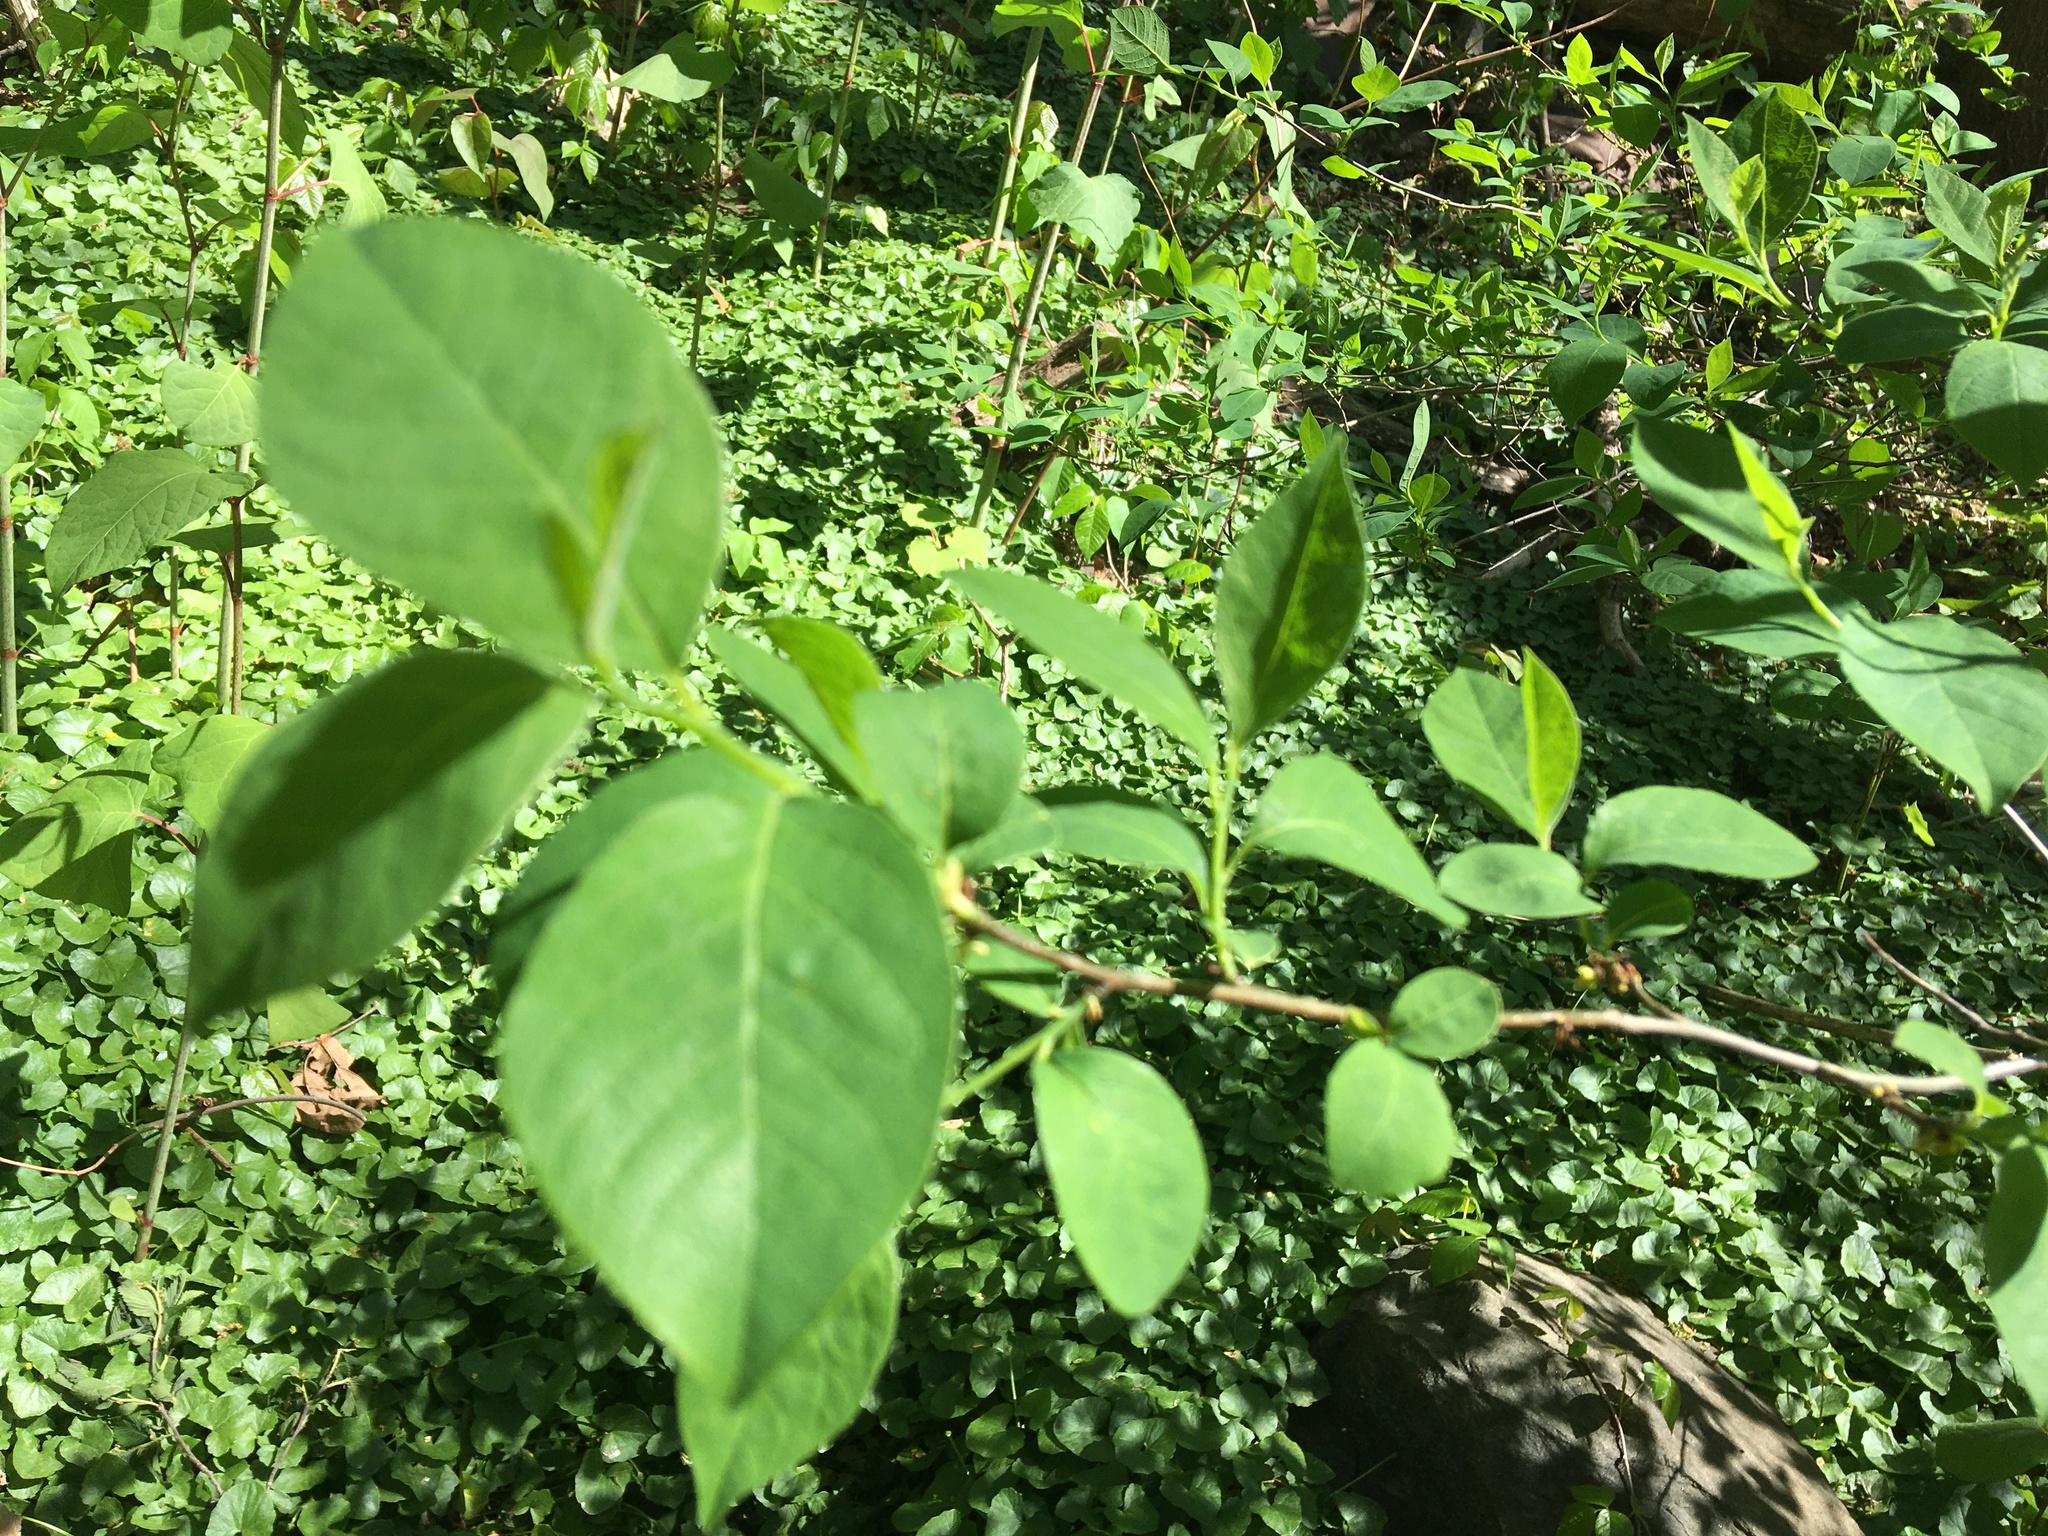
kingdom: Plantae
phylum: Tracheophyta
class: Magnoliopsida
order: Laurales
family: Lauraceae
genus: Lindera
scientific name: Lindera benzoin
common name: Spicebush
